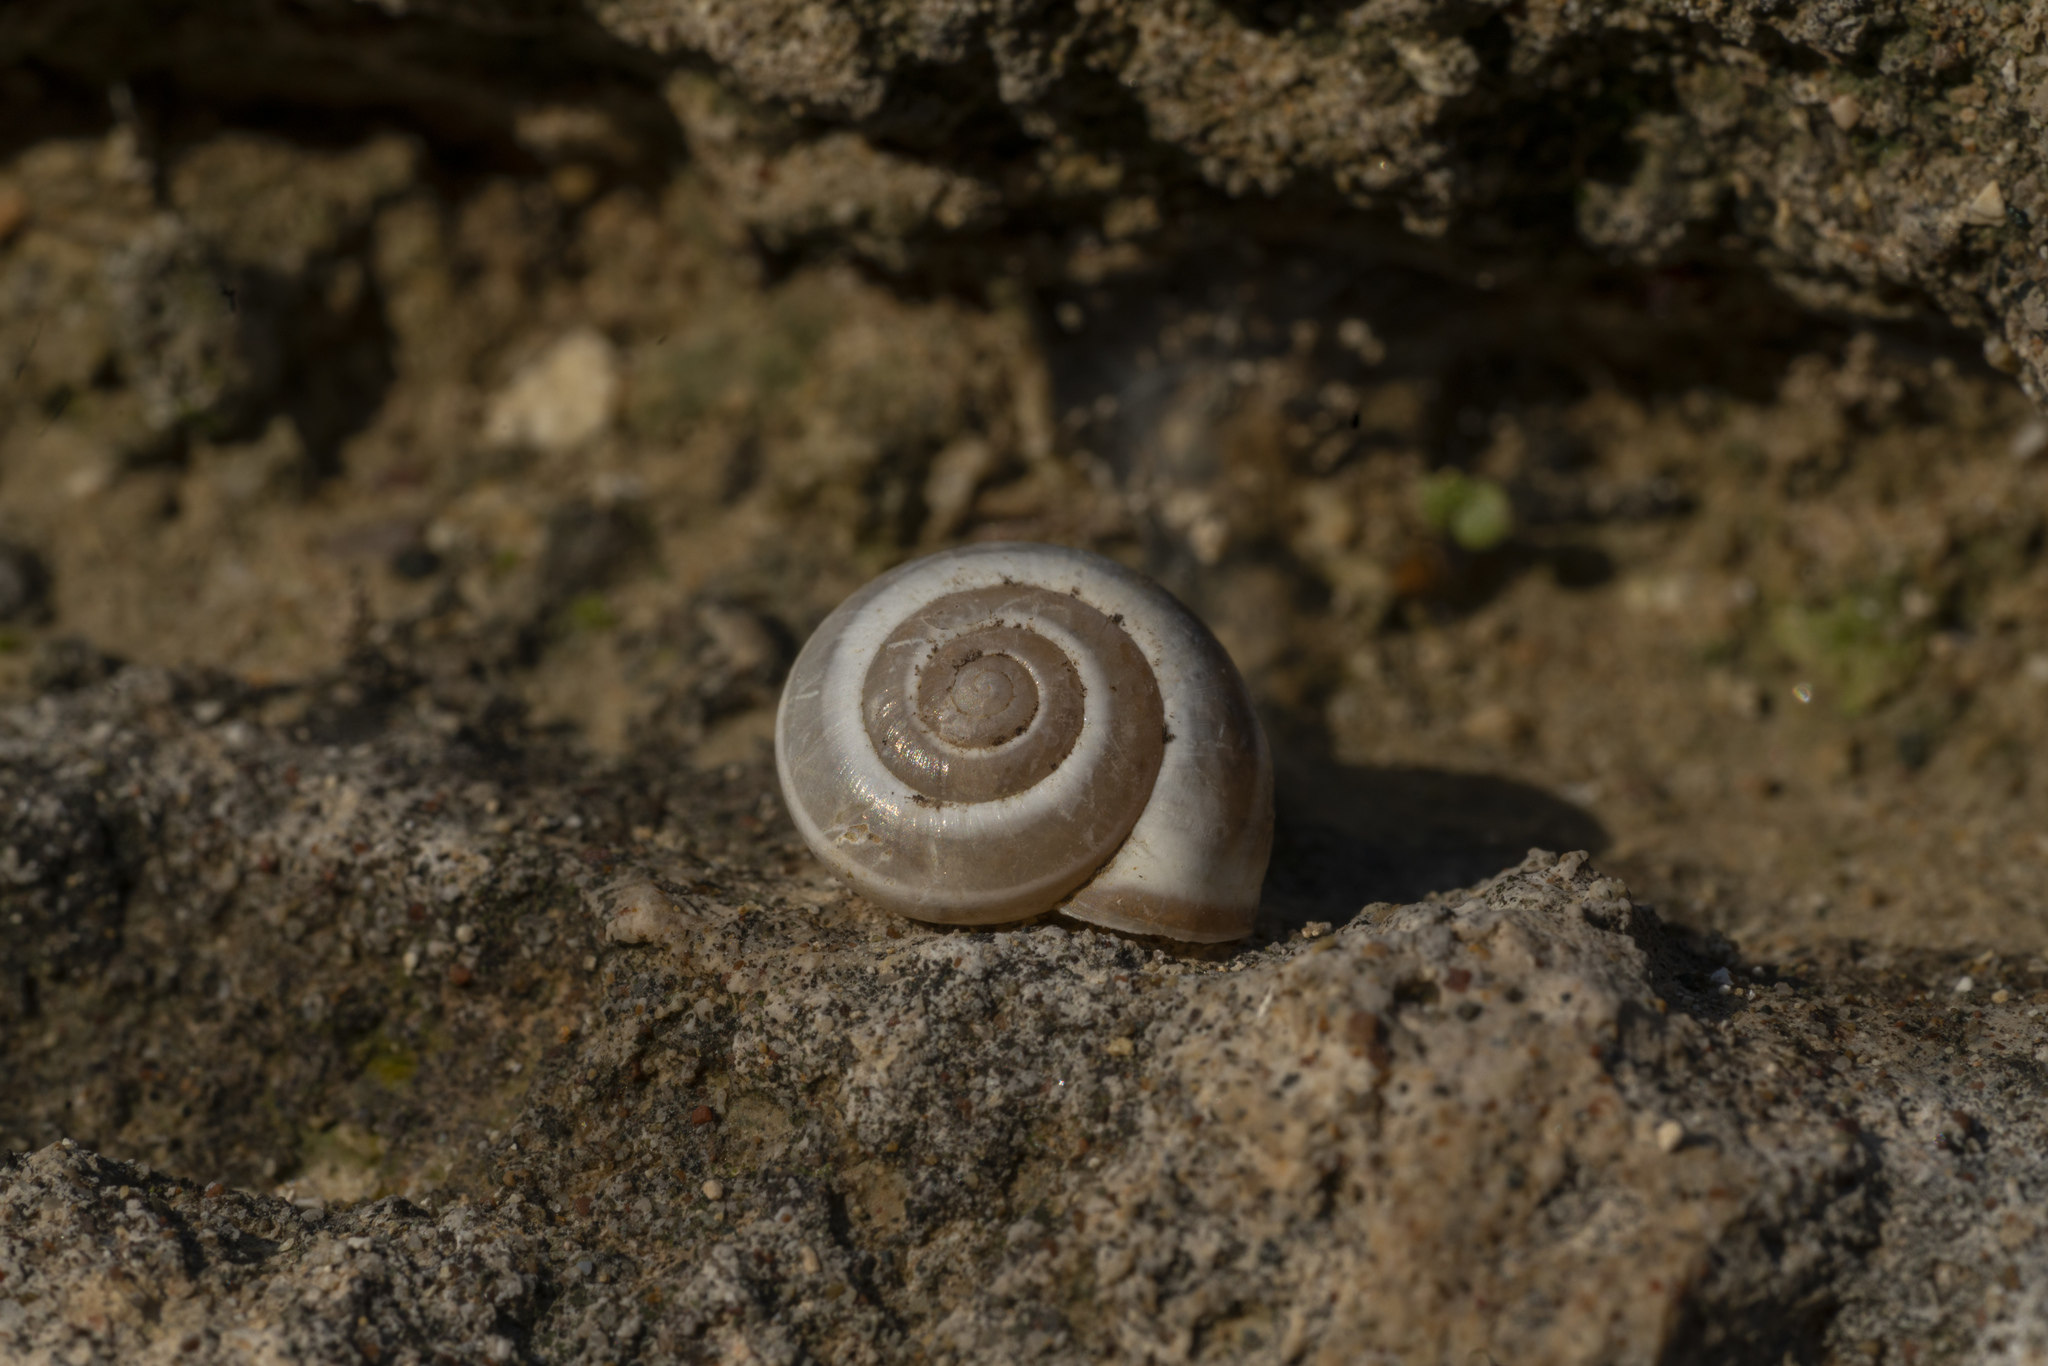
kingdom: Animalia
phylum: Mollusca
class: Gastropoda
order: Stylommatophora
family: Hygromiidae
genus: Monacha
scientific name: Monacha syriaca
